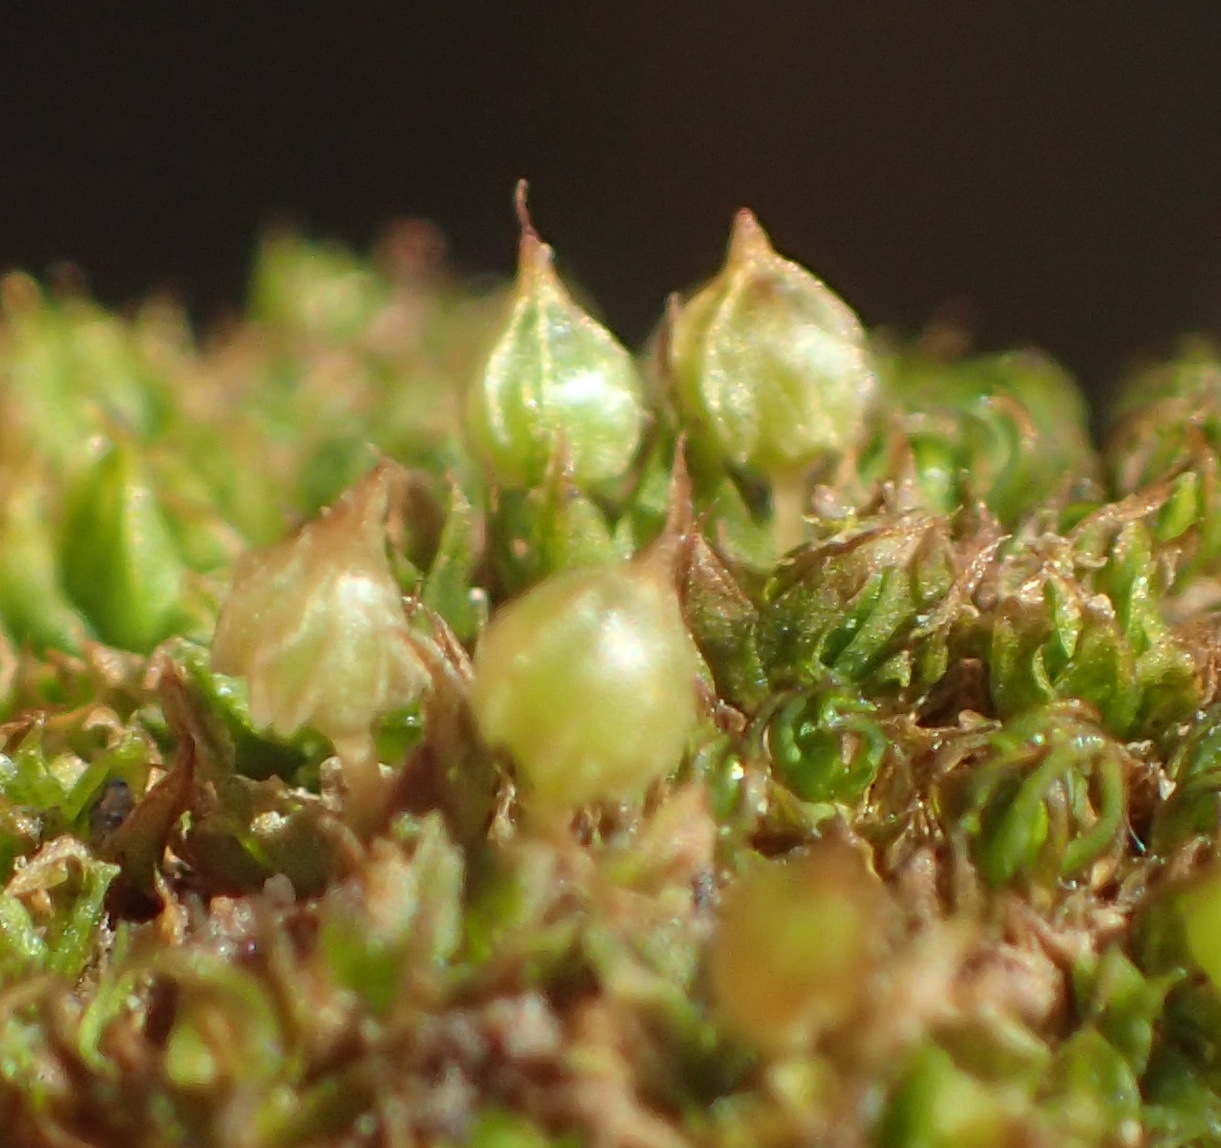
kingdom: Plantae
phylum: Bryophyta
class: Bryopsida
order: Funariales
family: Funariaceae
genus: Goniomitrium
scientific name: Goniomitrium acuminatum
